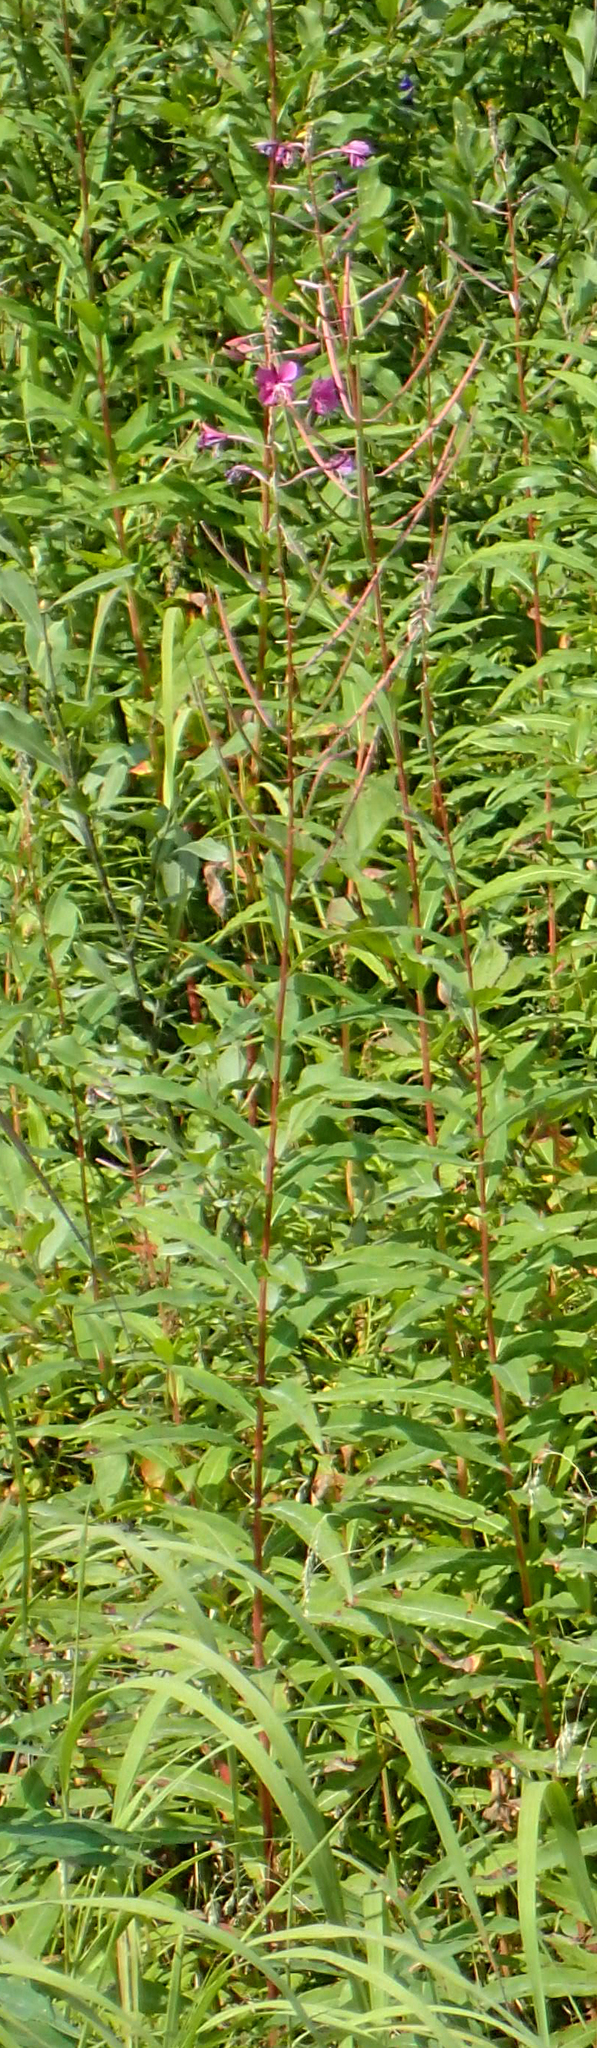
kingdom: Plantae
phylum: Tracheophyta
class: Magnoliopsida
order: Myrtales
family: Onagraceae
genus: Chamaenerion
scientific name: Chamaenerion angustifolium
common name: Fireweed
